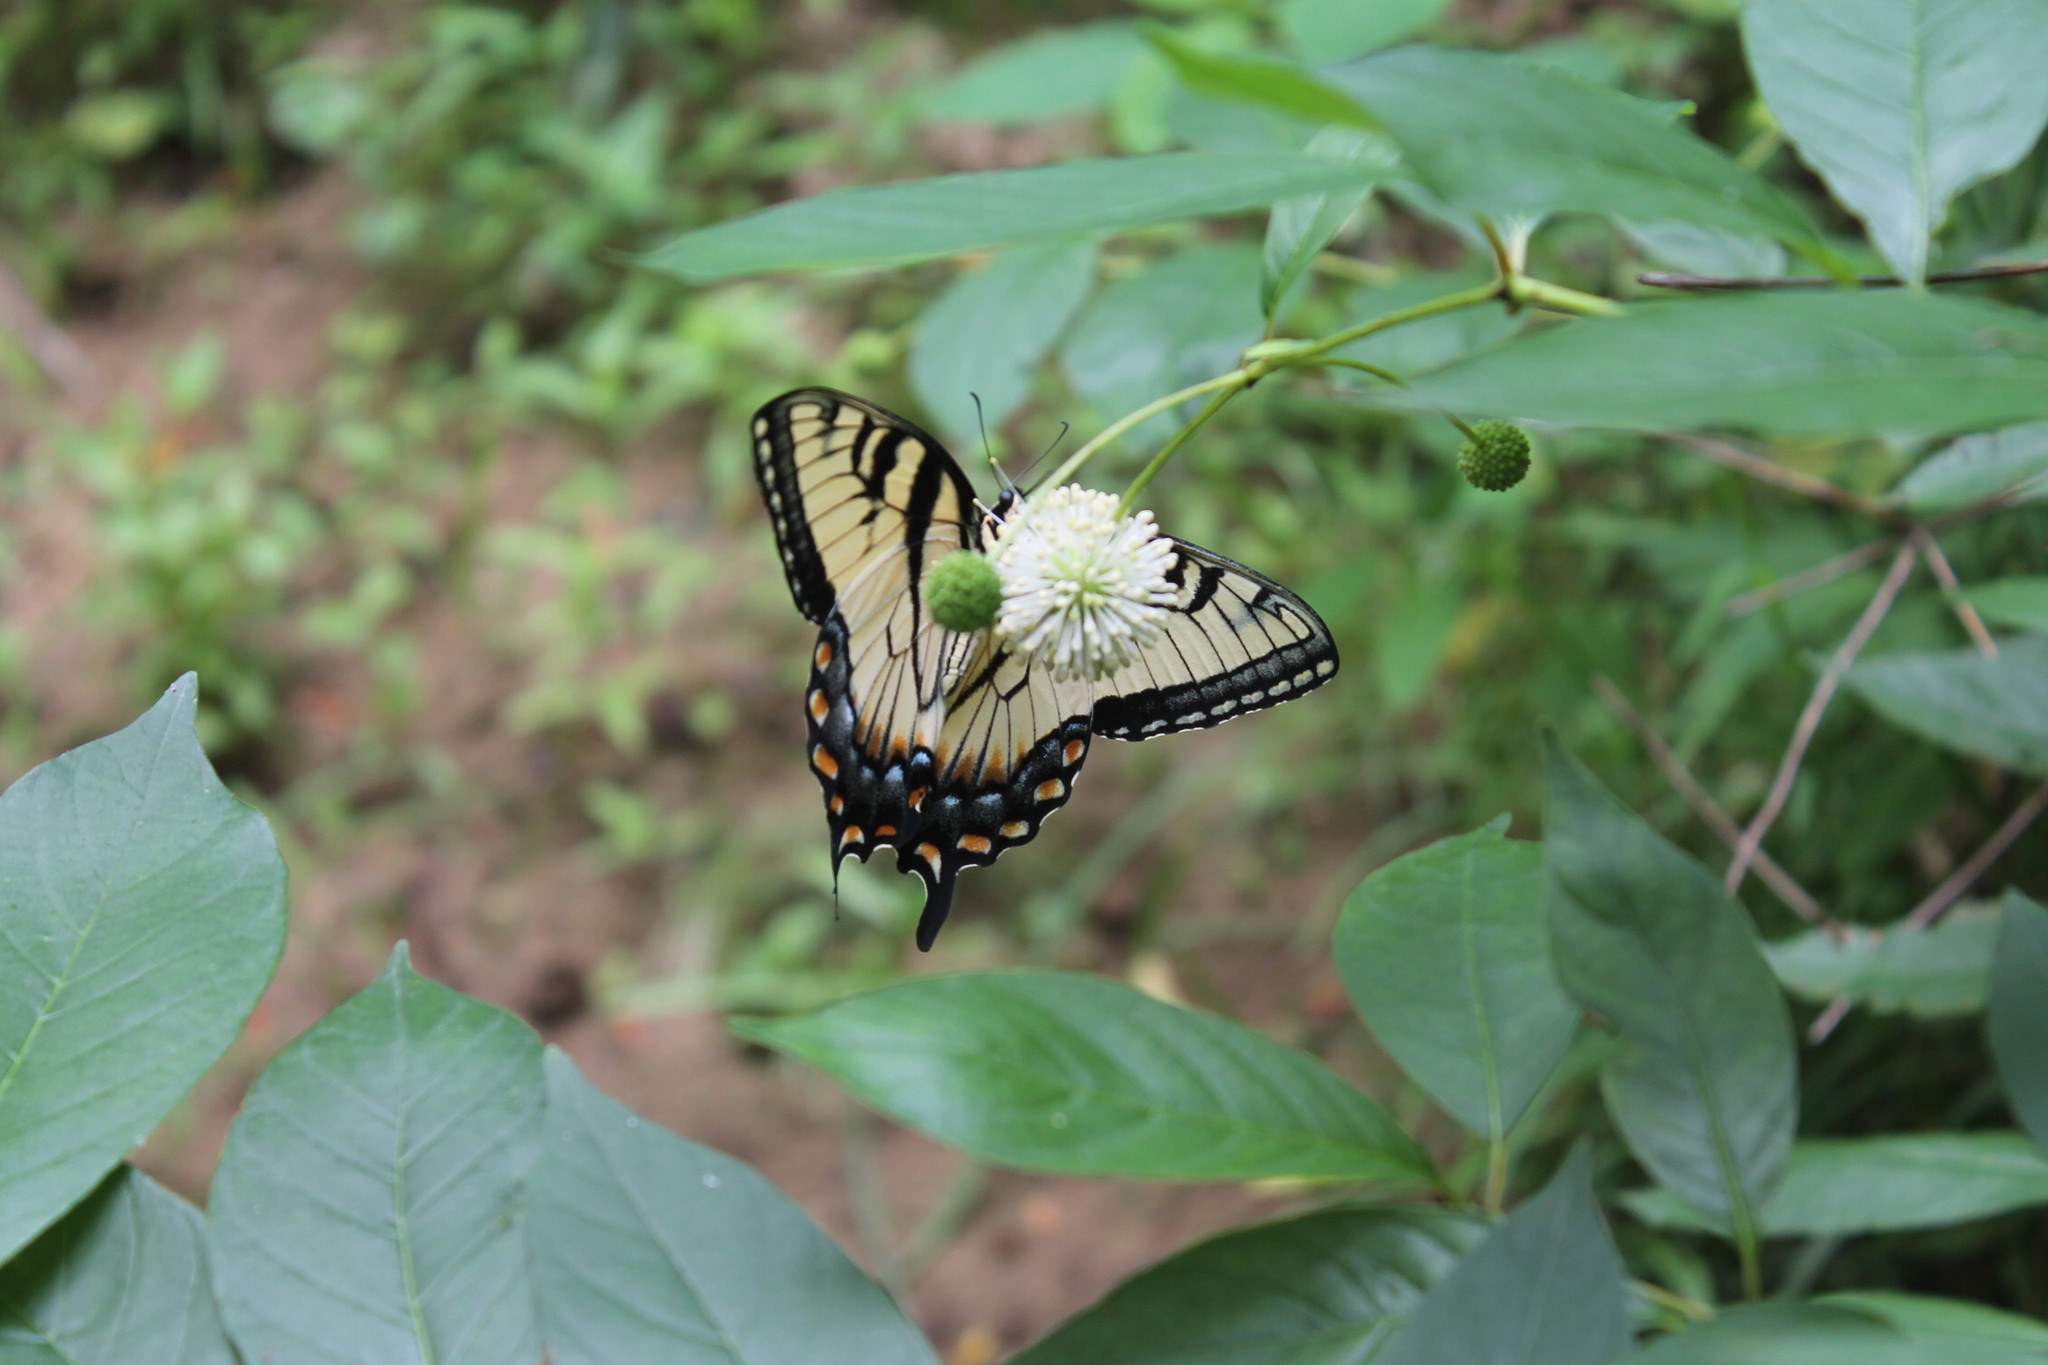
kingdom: Animalia
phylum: Arthropoda
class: Insecta
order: Lepidoptera
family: Papilionidae
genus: Papilio
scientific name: Papilio glaucus
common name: Tiger swallowtail
